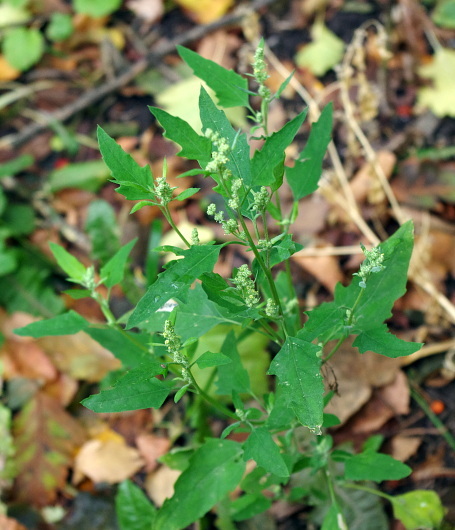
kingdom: Plantae
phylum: Tracheophyta
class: Magnoliopsida
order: Caryophyllales
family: Amaranthaceae
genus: Chenopodium
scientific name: Chenopodium album
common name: Fat-hen
